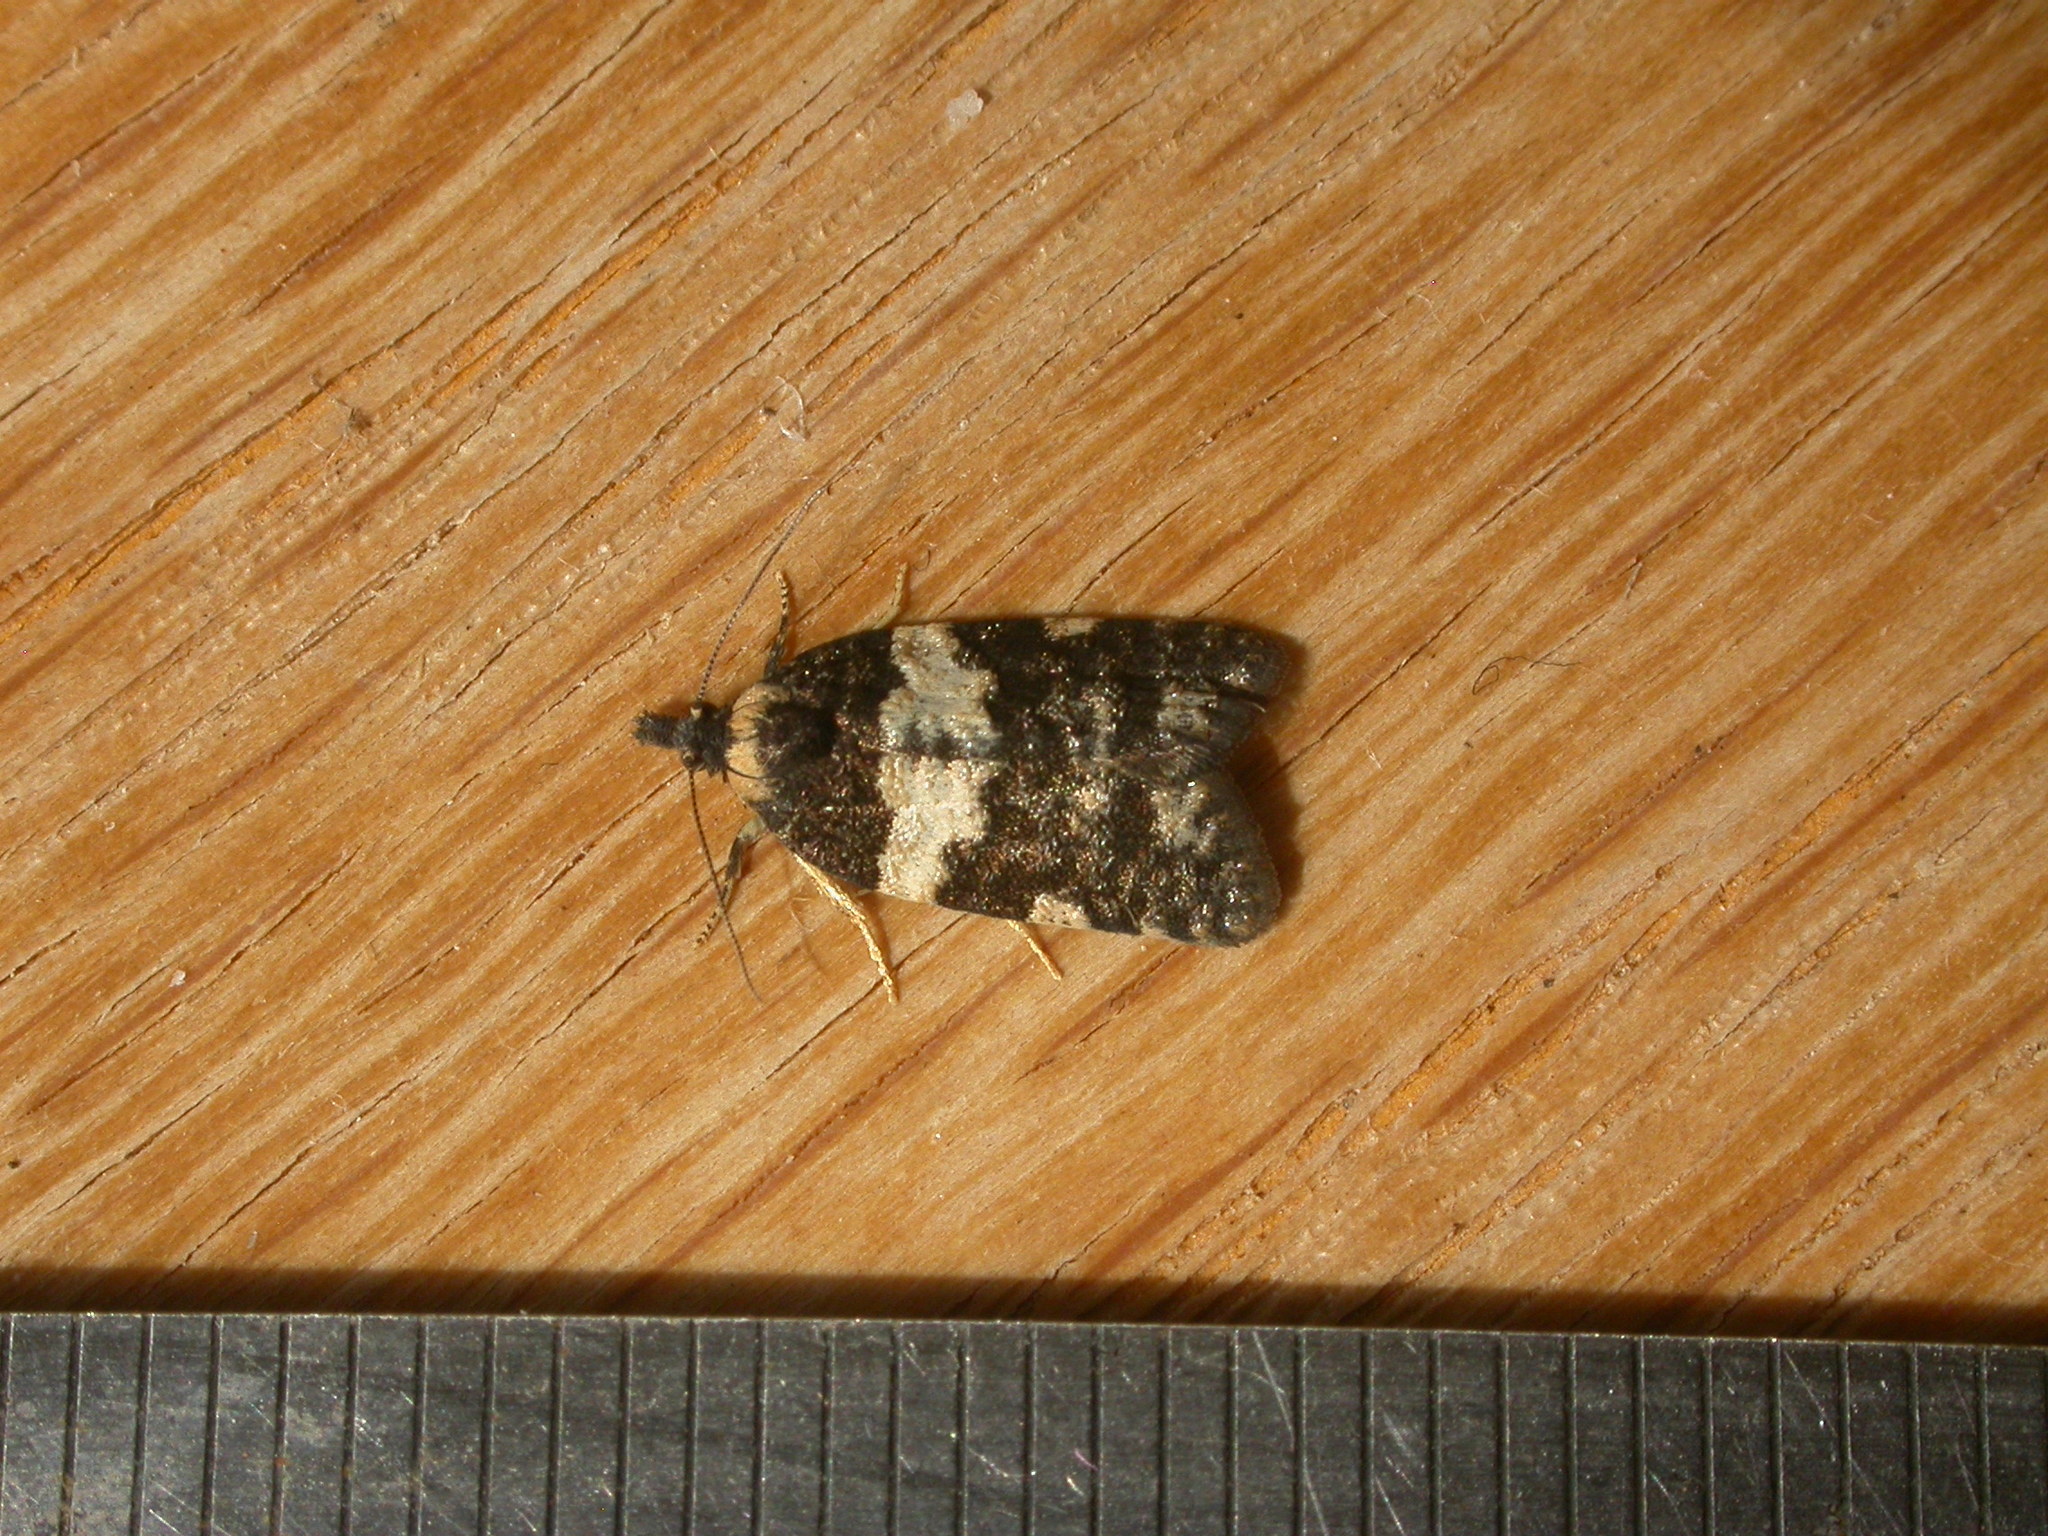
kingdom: Animalia
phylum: Arthropoda
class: Insecta
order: Lepidoptera
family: Tortricidae
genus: Dichelia
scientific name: Dichelia cosmopis
